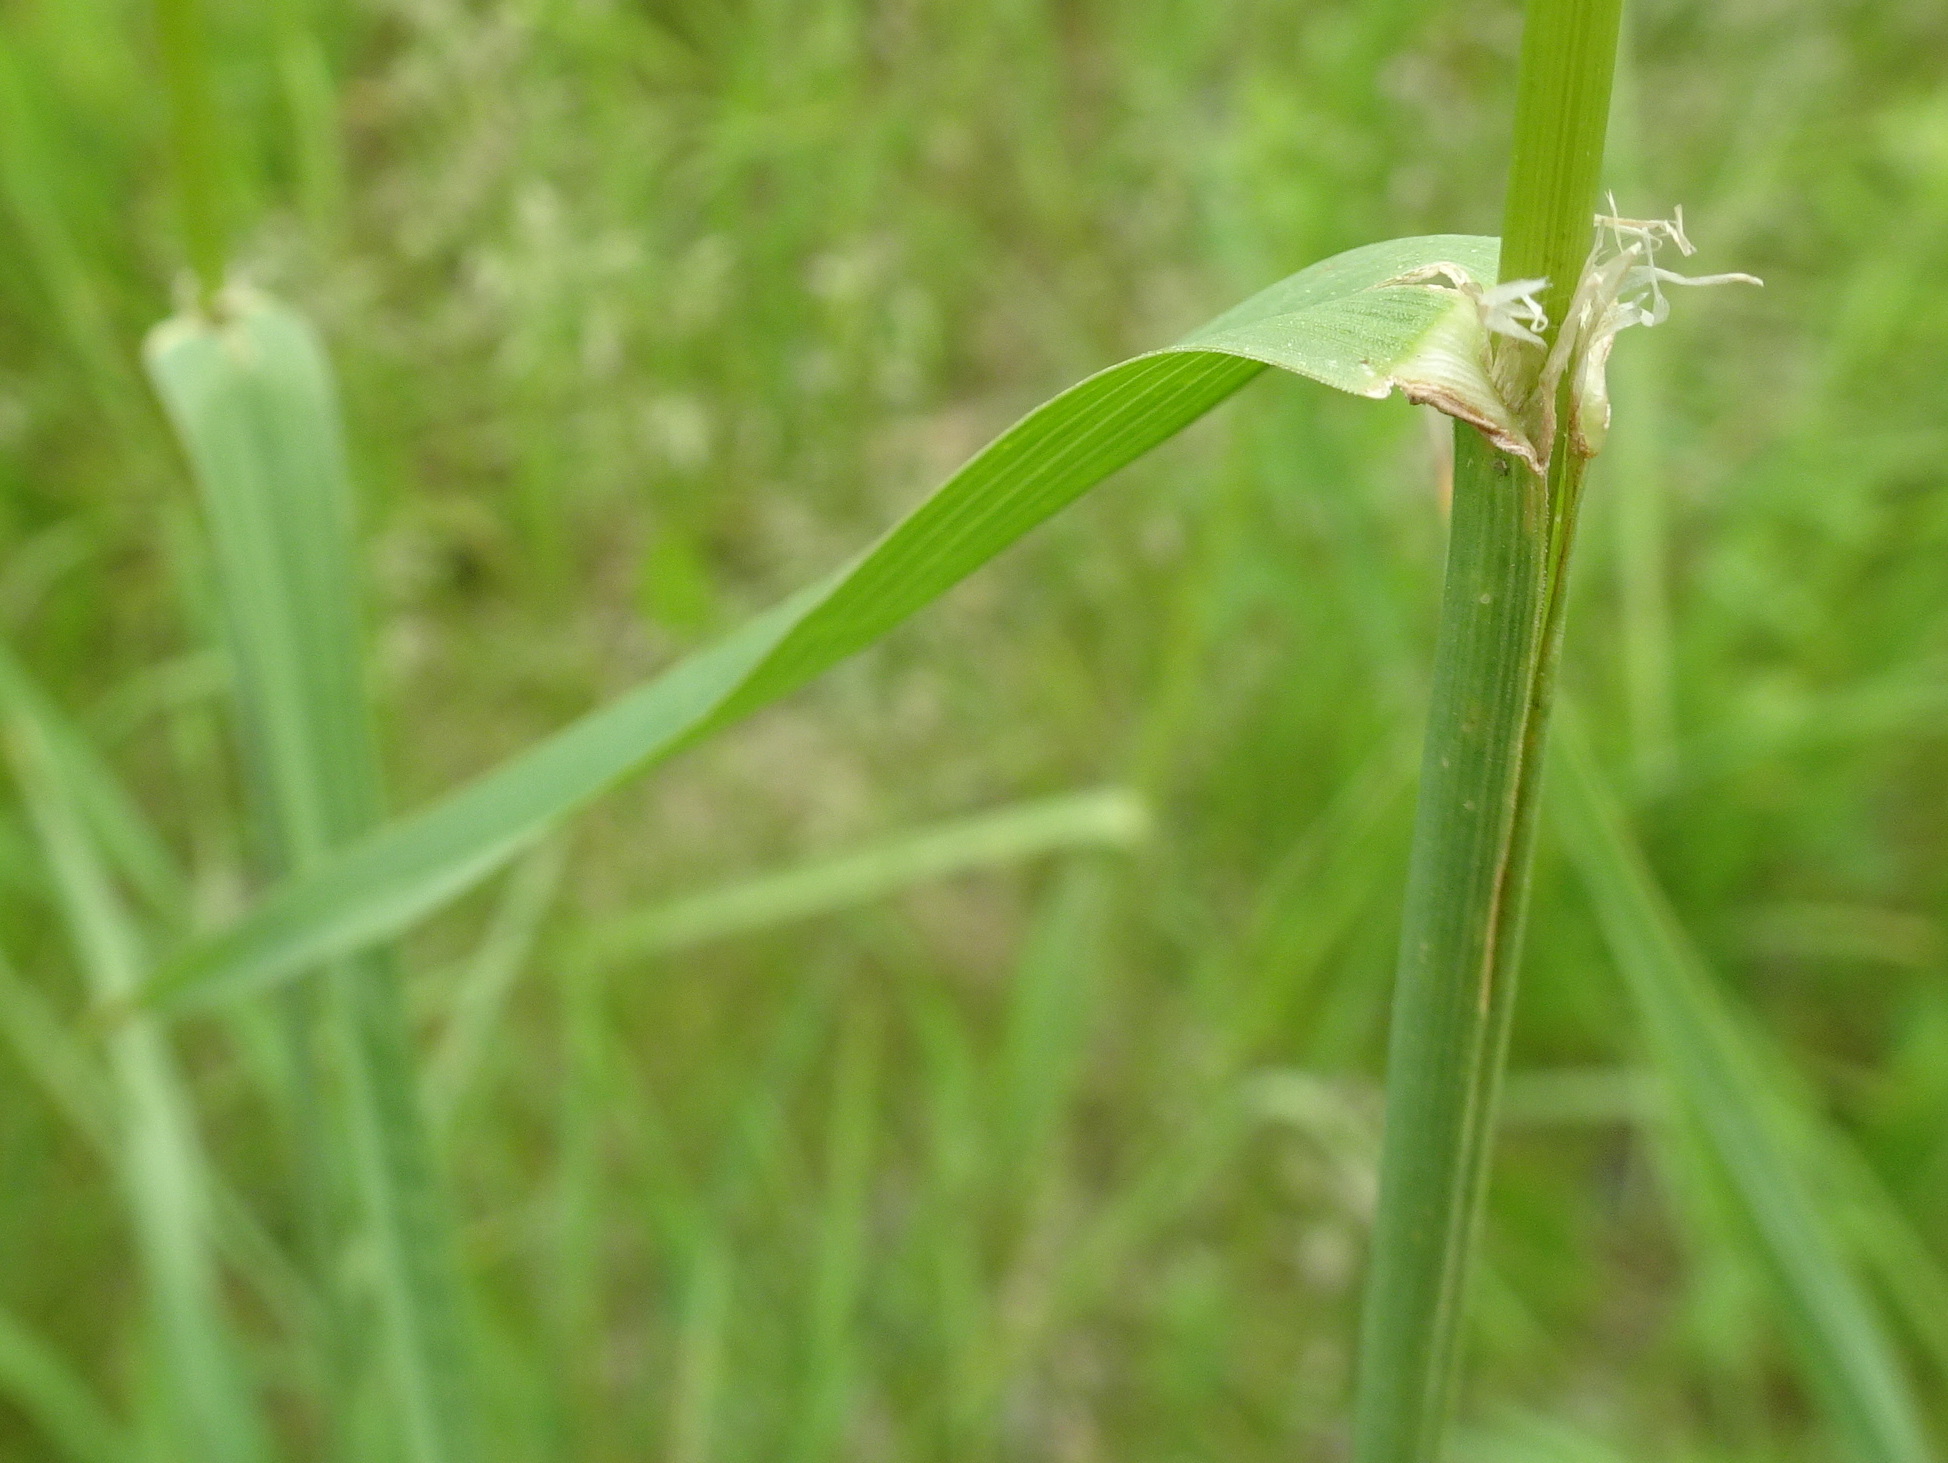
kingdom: Plantae
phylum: Tracheophyta
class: Liliopsida
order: Poales
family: Poaceae
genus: Dactylis
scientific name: Dactylis glomerata
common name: Orchardgrass
